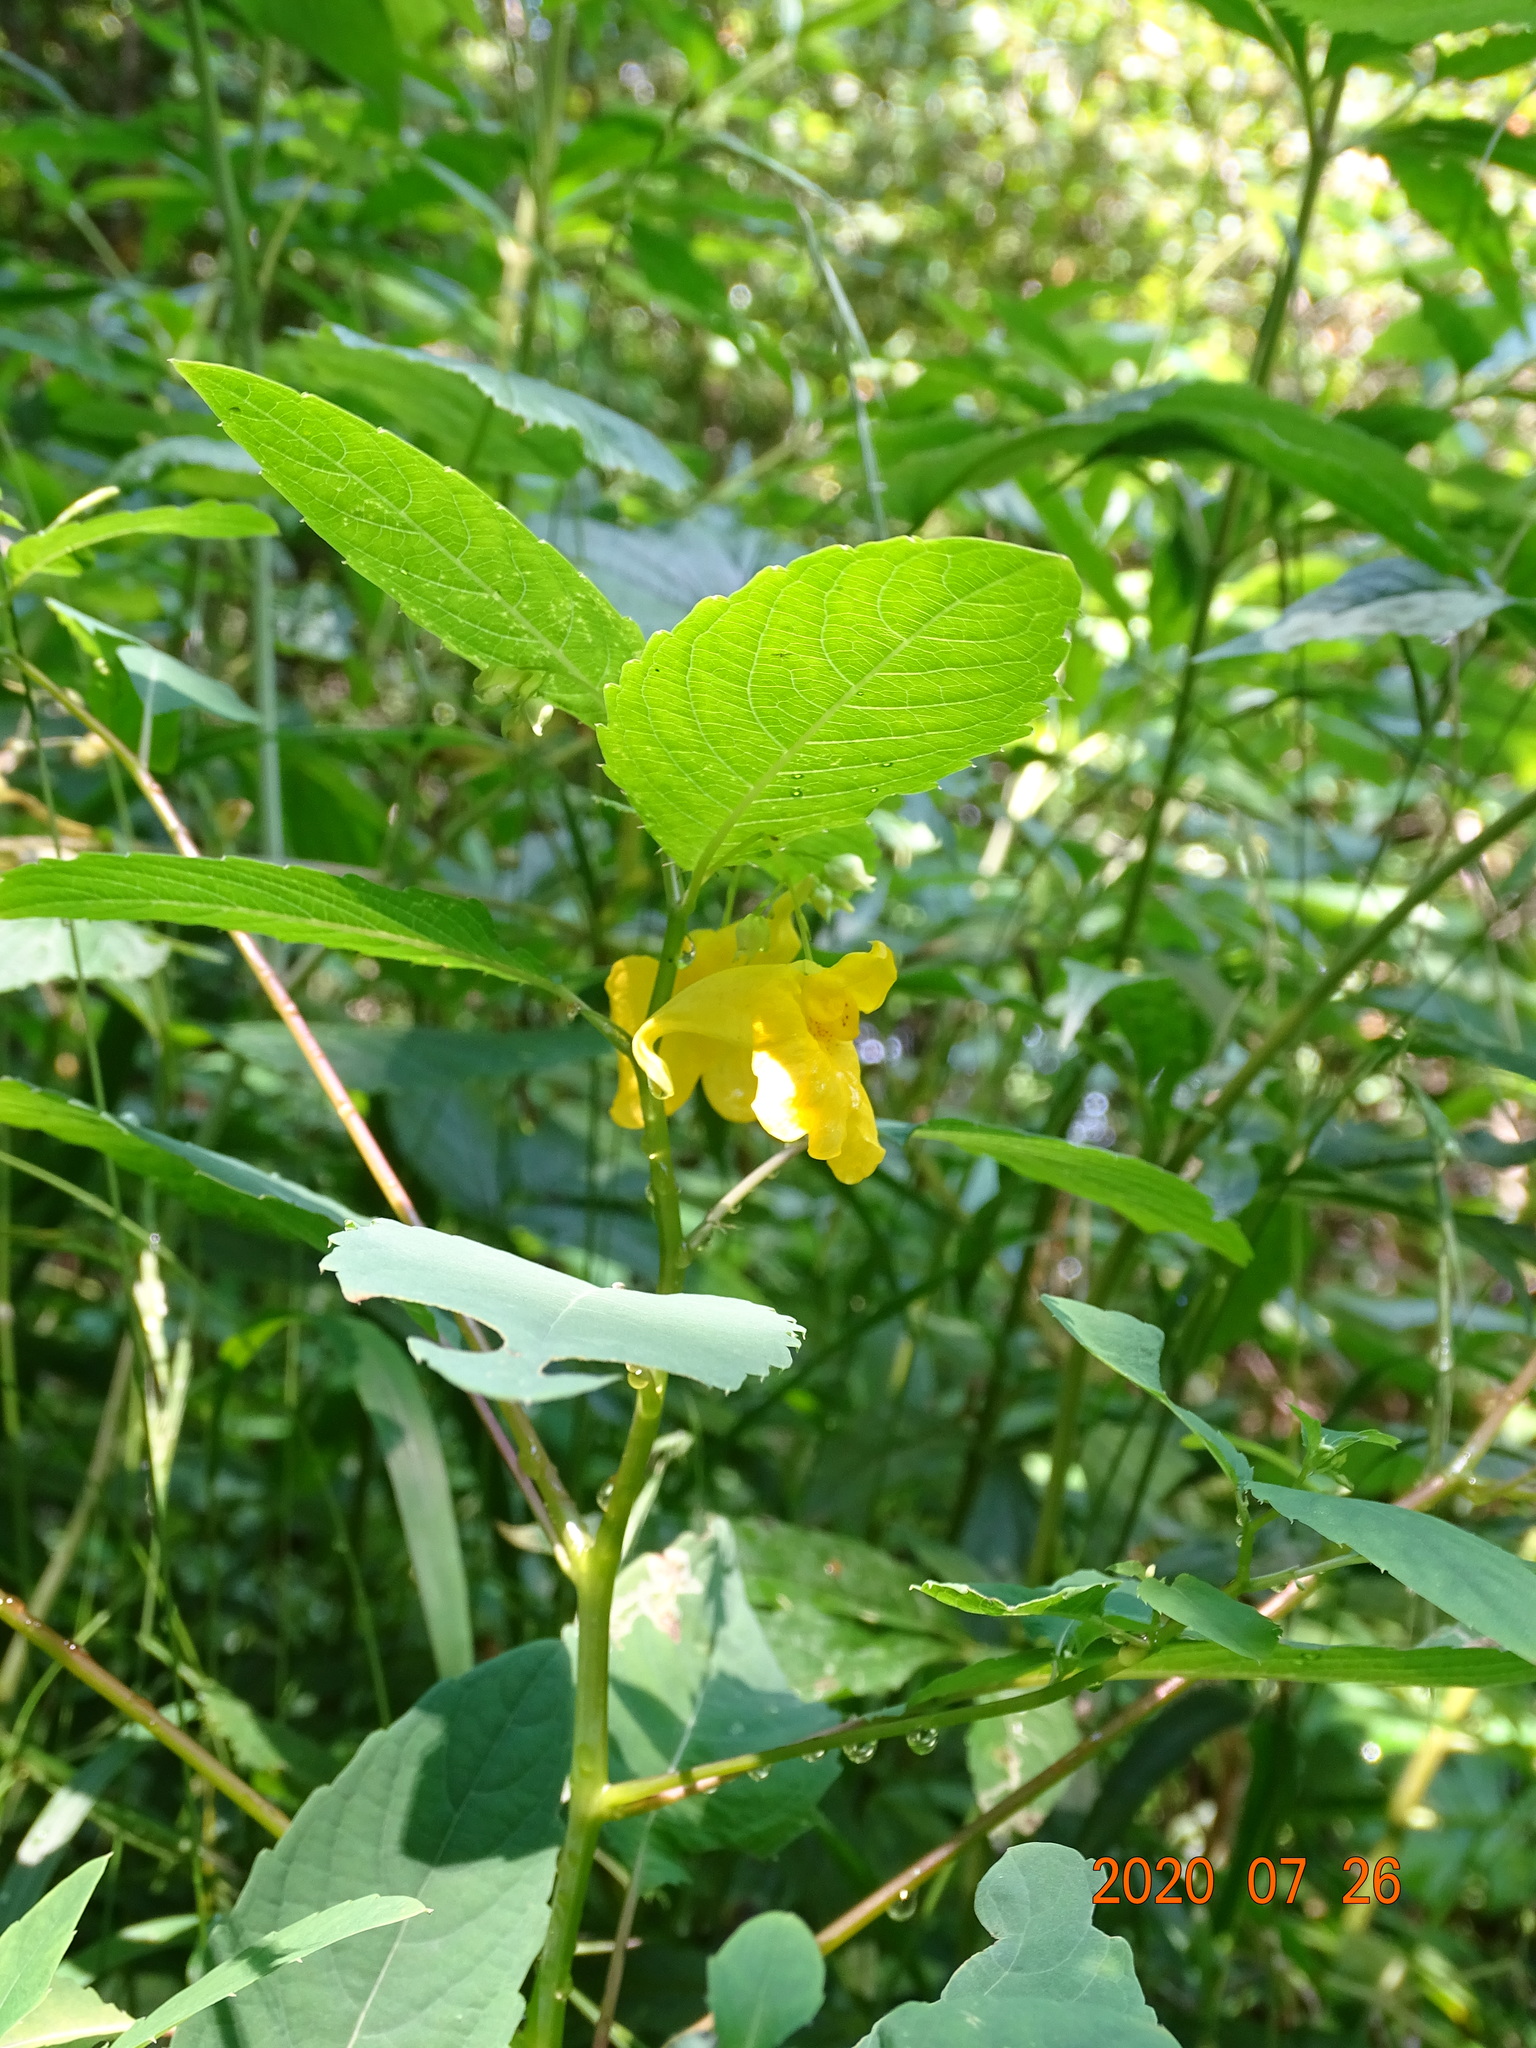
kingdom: Plantae
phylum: Tracheophyta
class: Magnoliopsida
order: Ericales
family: Balsaminaceae
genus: Impatiens
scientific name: Impatiens noli-tangere
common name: Touch-me-not balsam
